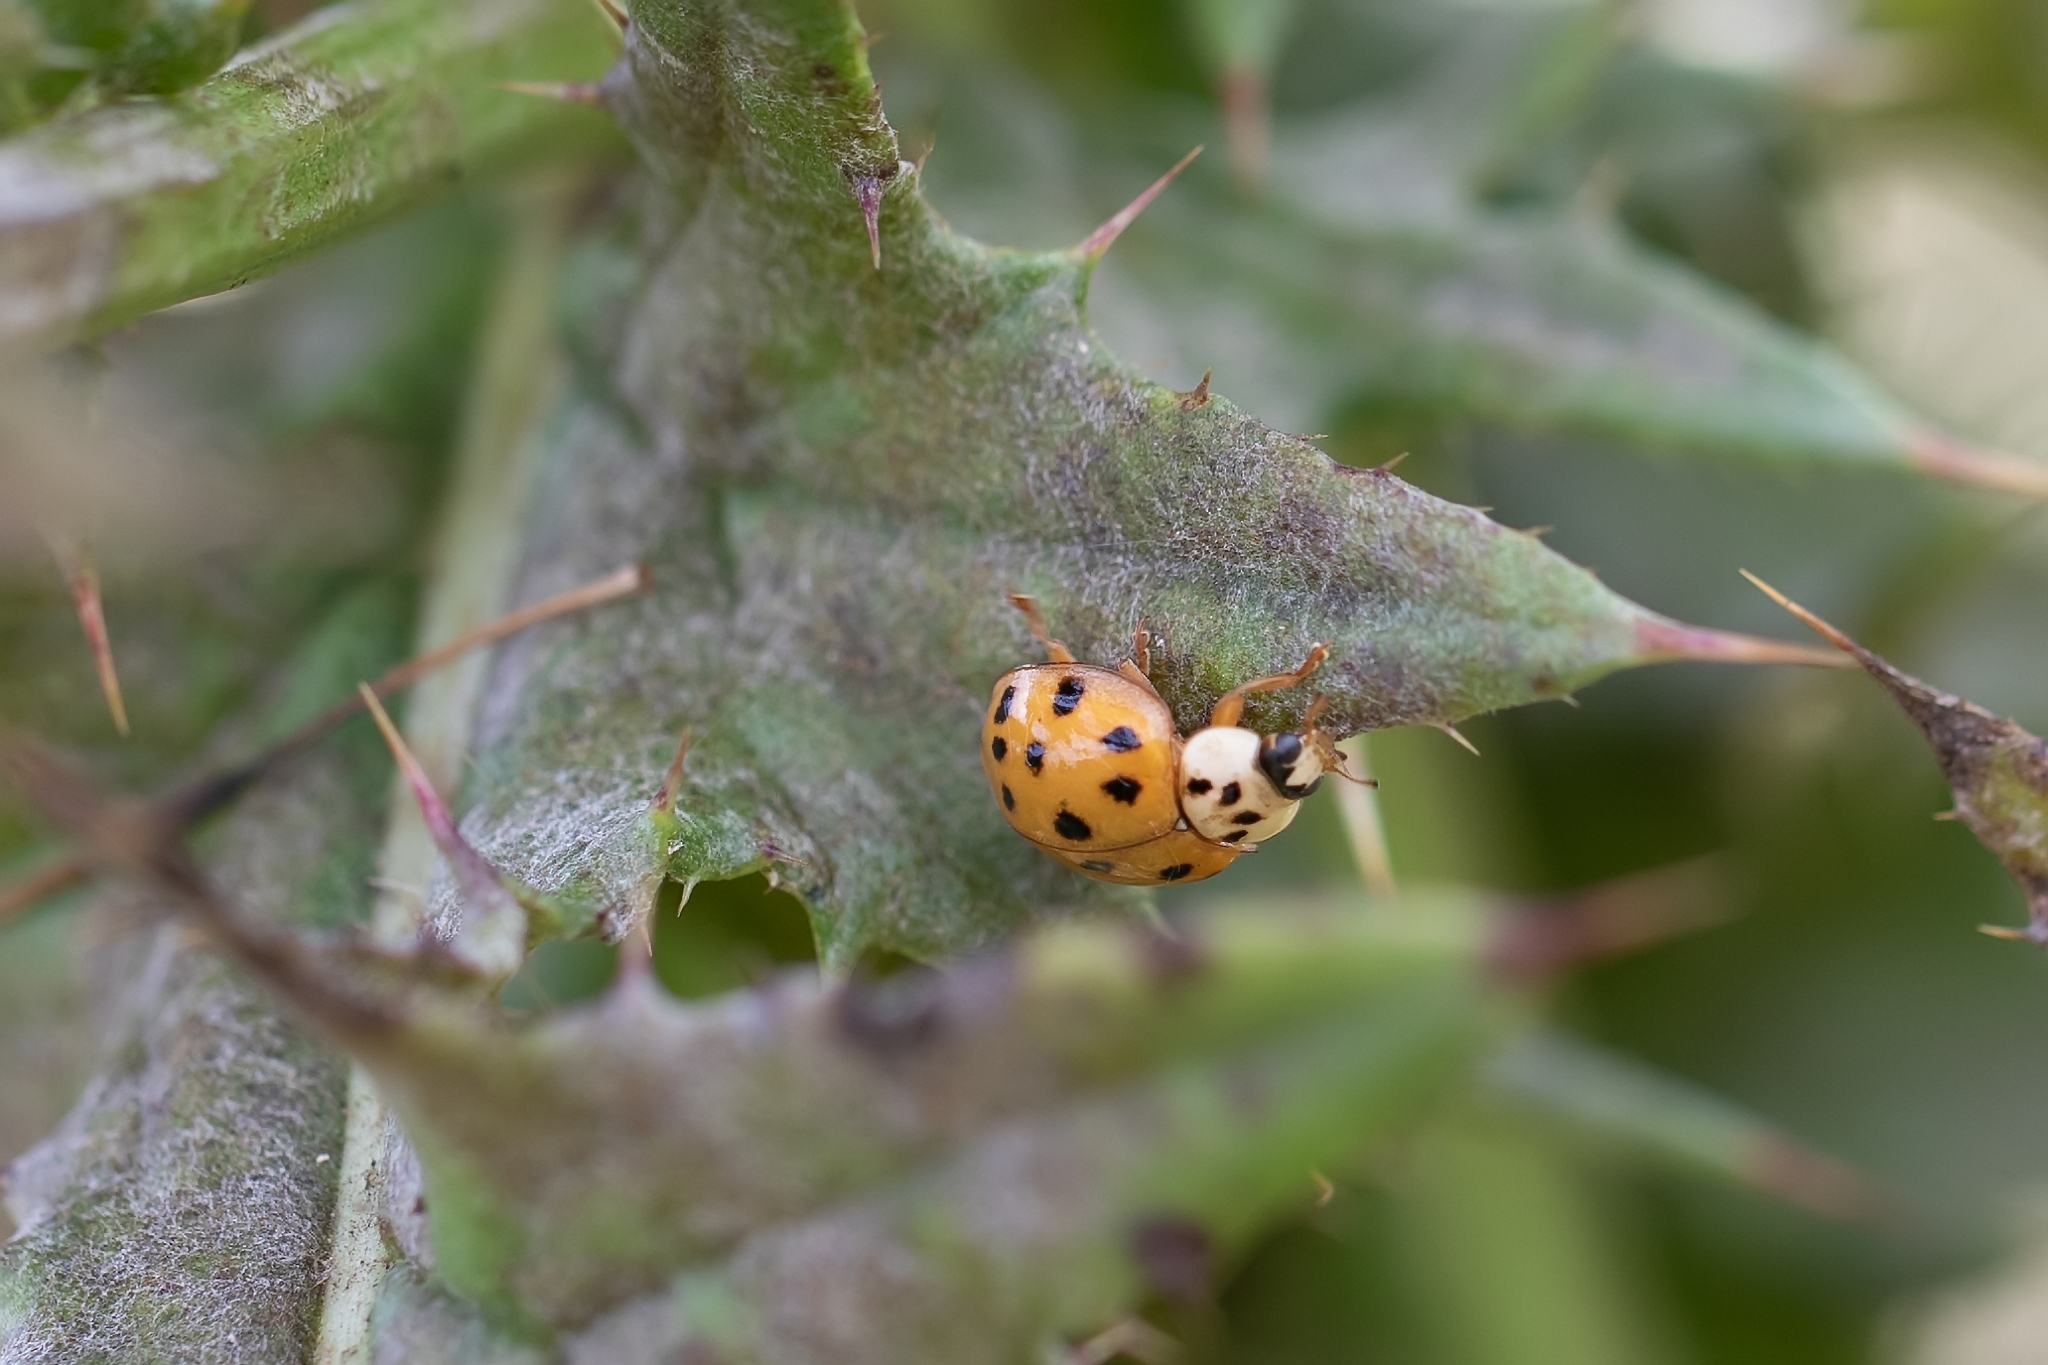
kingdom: Animalia
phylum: Arthropoda
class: Insecta
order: Coleoptera
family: Coccinellidae
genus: Harmonia
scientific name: Harmonia axyridis
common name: Harlequin ladybird
